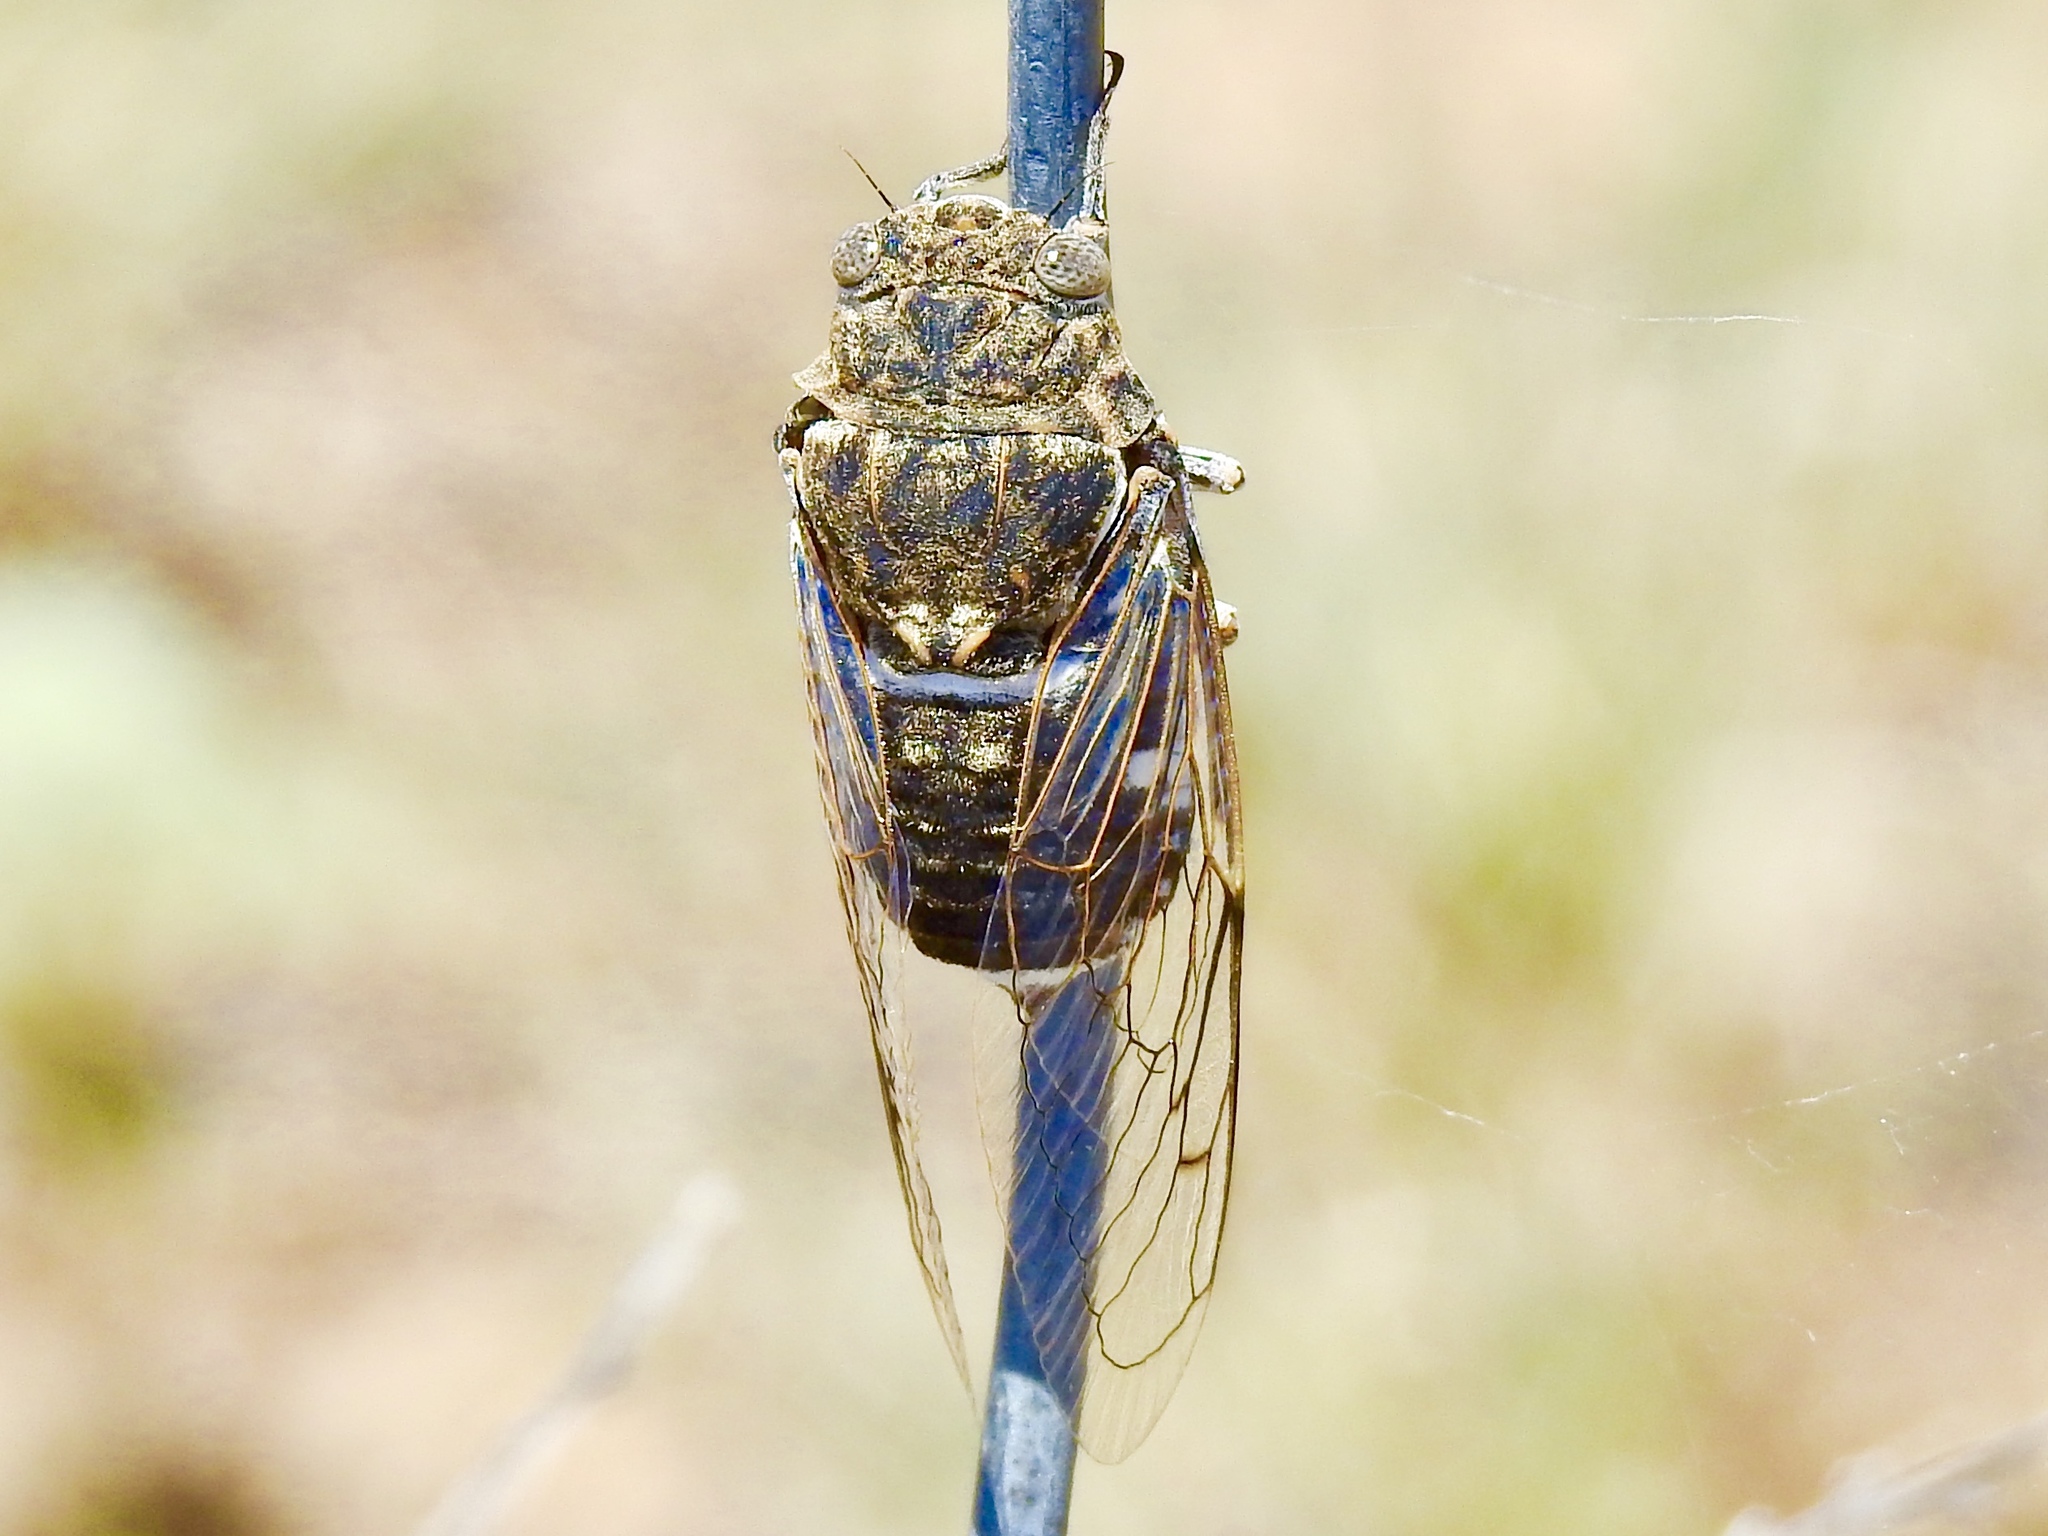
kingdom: Animalia
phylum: Arthropoda
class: Insecta
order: Hemiptera
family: Cicadidae
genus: Cacama
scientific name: Cacama valvata
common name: Cactus dodger
